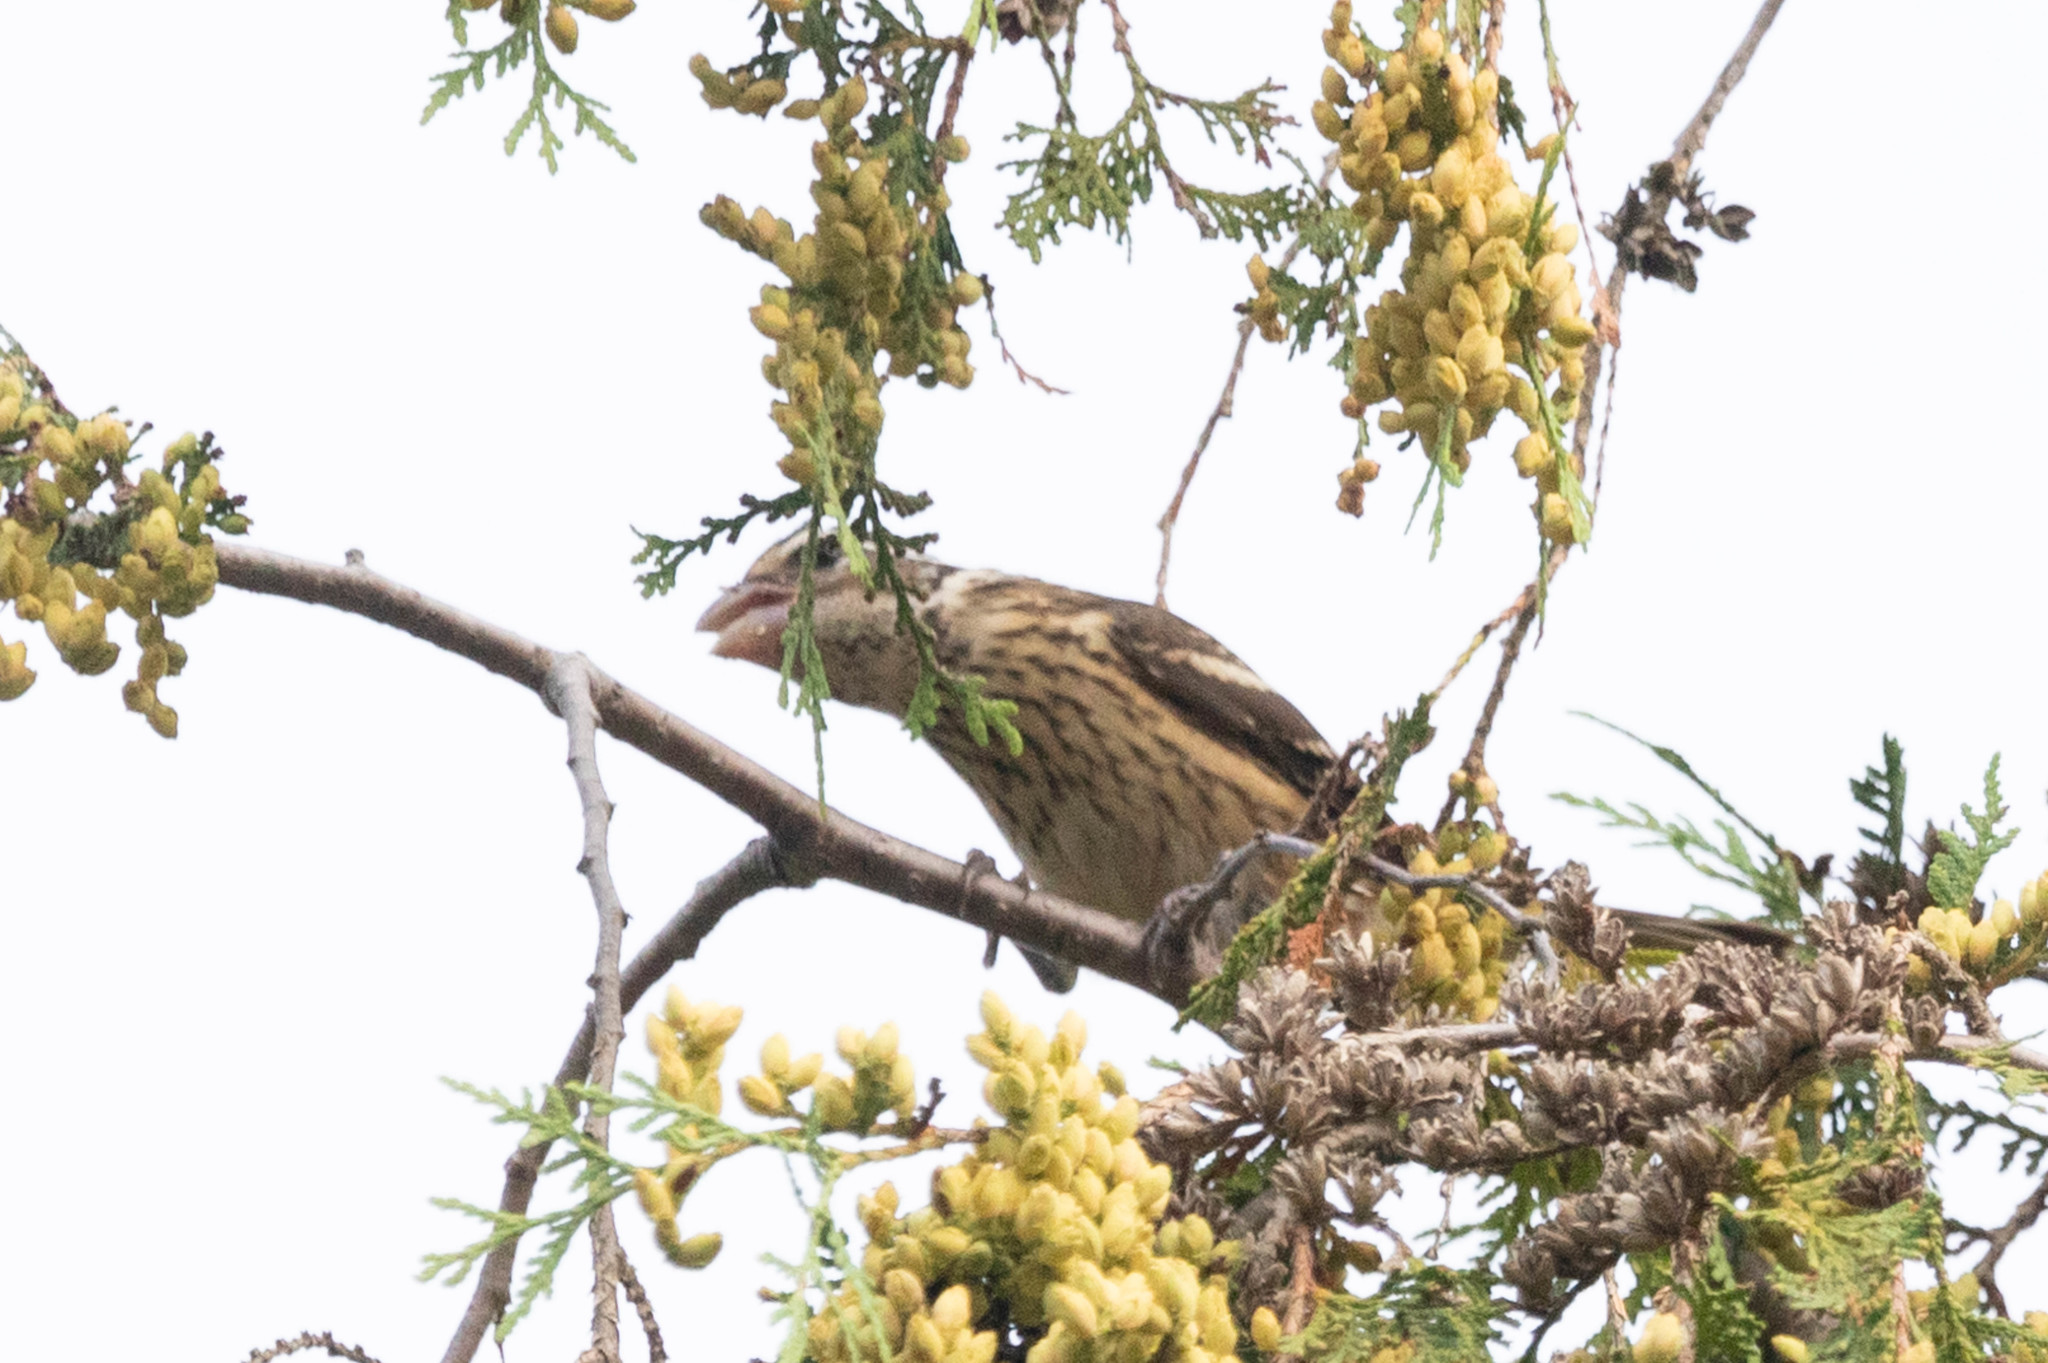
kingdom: Animalia
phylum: Chordata
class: Aves
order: Passeriformes
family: Cardinalidae
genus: Pheucticus
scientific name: Pheucticus ludovicianus
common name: Rose-breasted grosbeak
